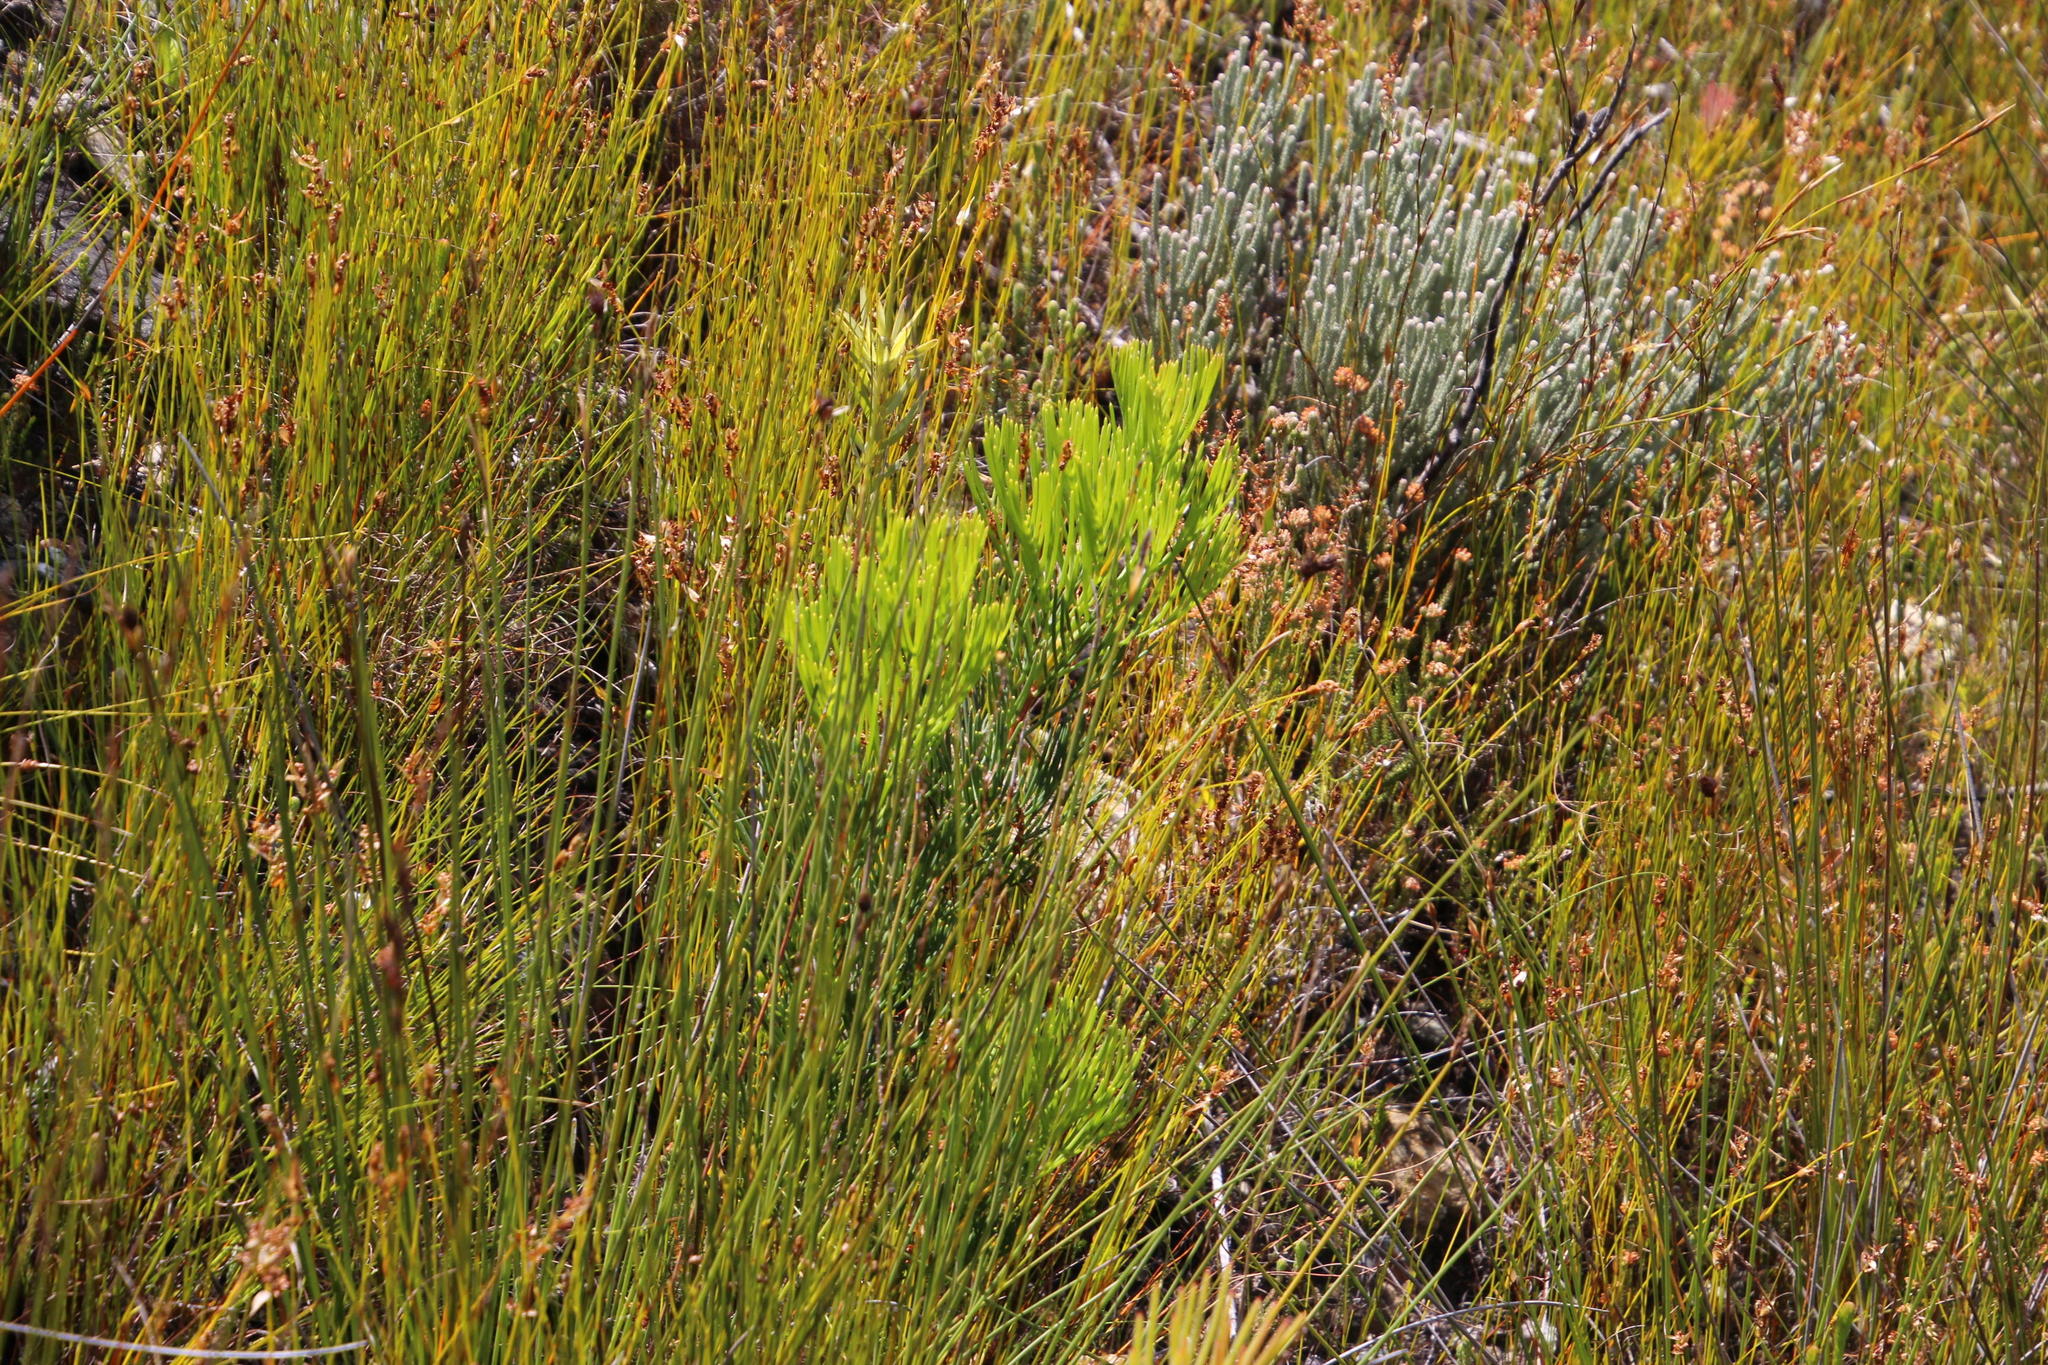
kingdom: Plantae
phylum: Tracheophyta
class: Magnoliopsida
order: Proteales
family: Proteaceae
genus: Hakea
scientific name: Hakea drupacea
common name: Sweet hakea
